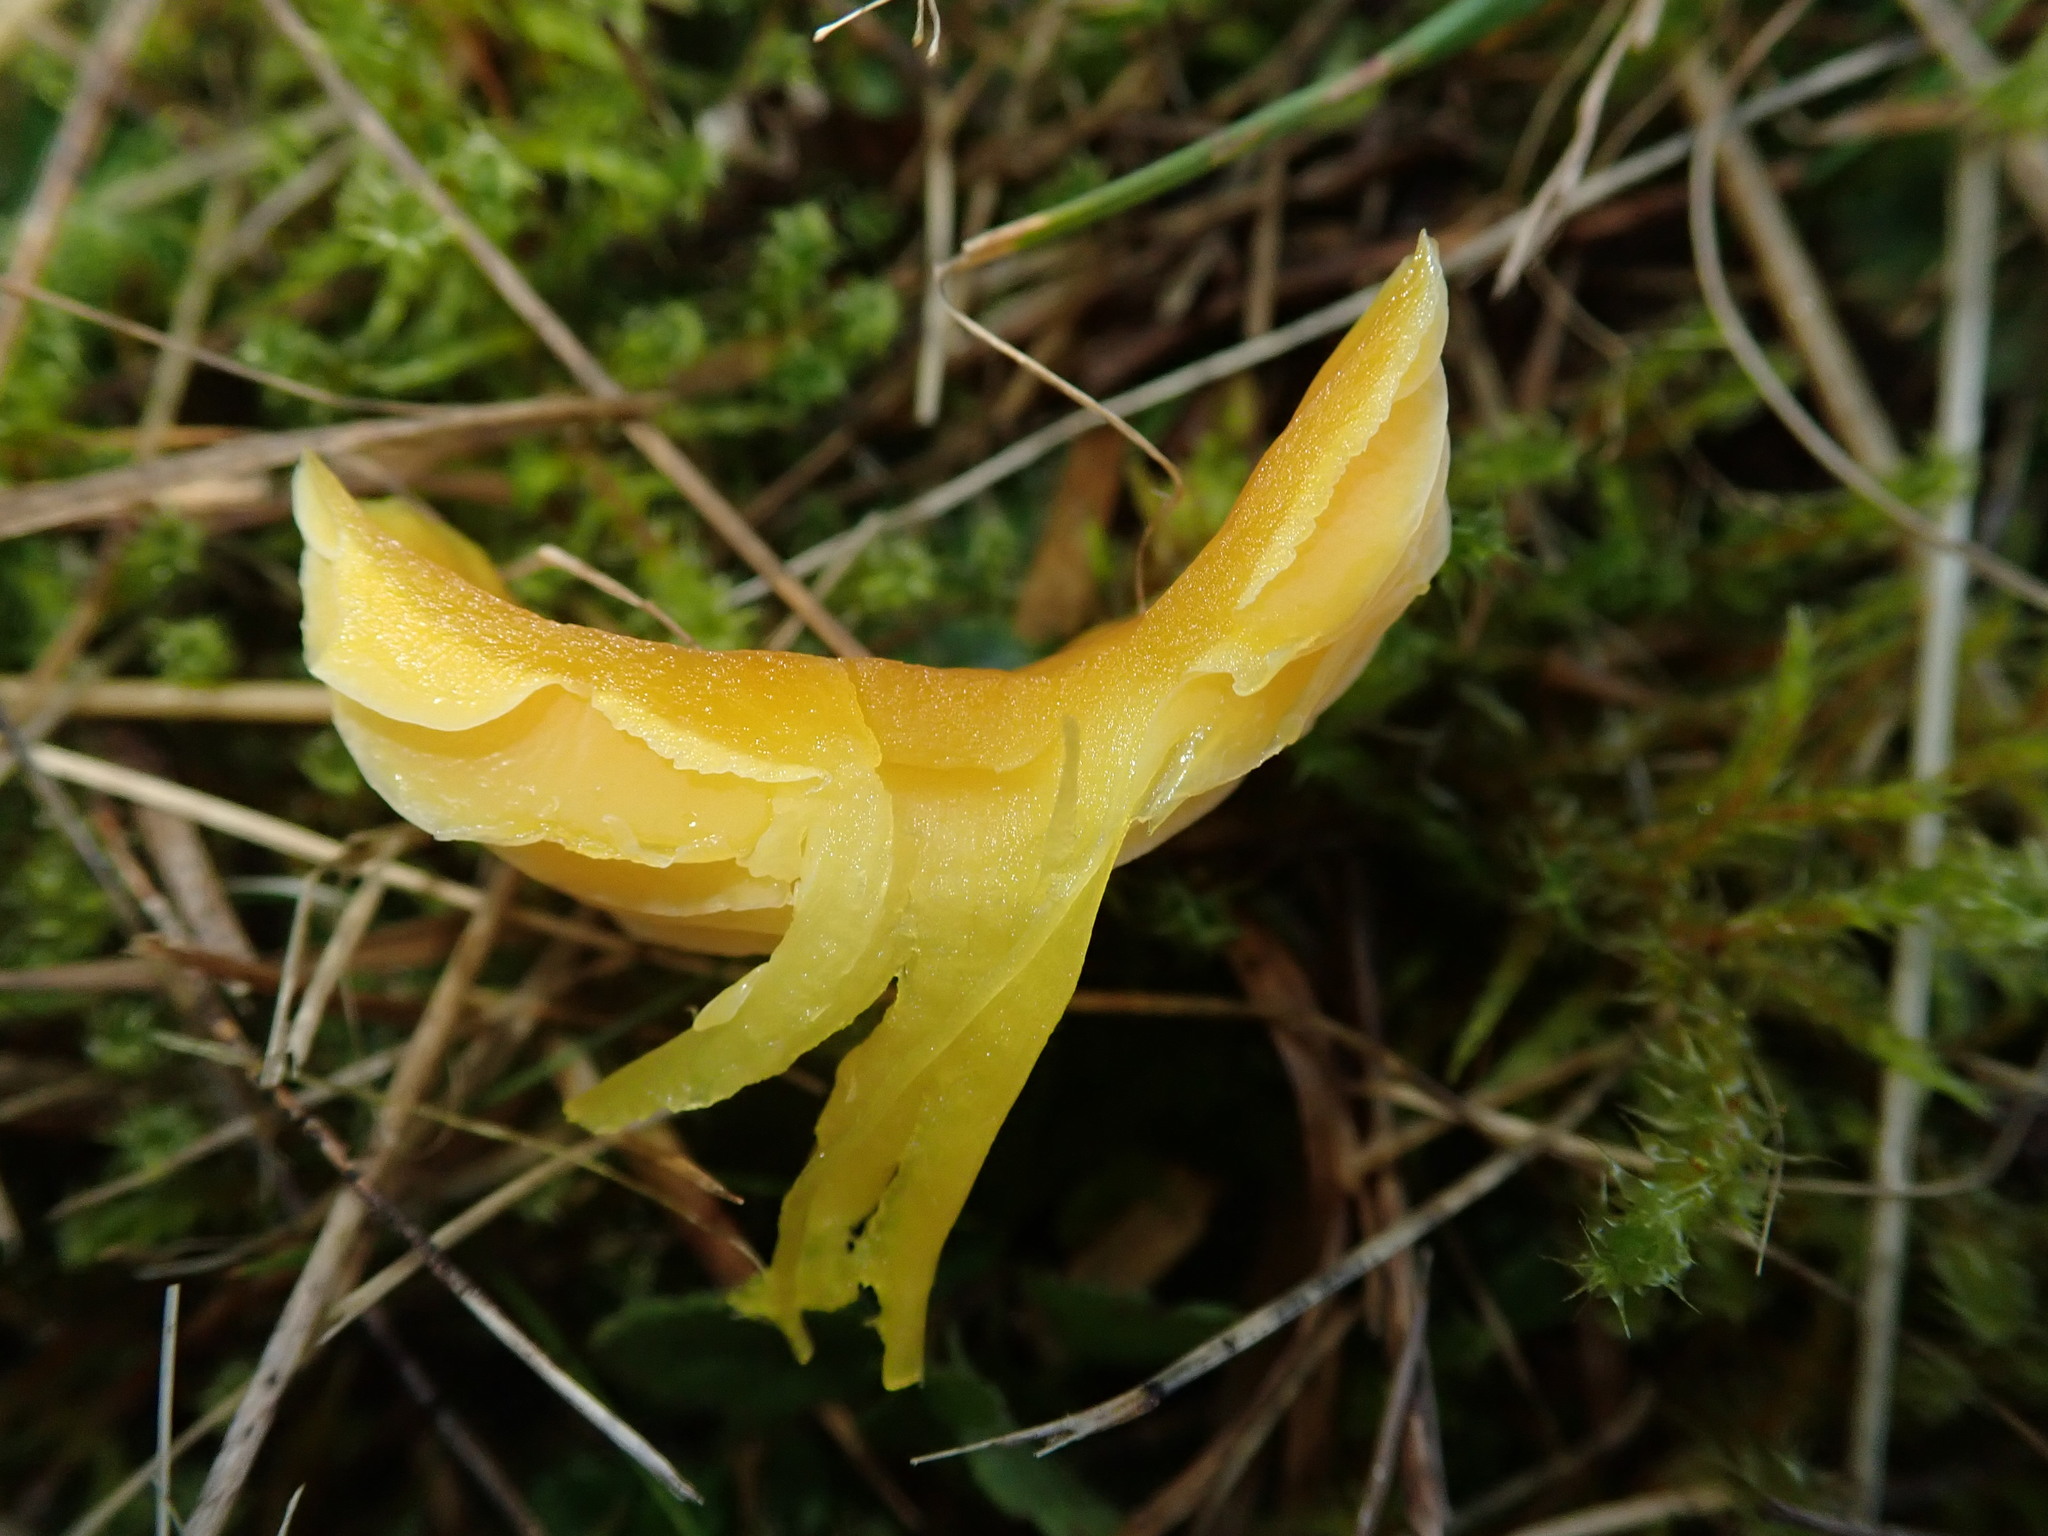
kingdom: Fungi
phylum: Basidiomycota
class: Agaricomycetes
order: Agaricales
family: Hygrophoraceae
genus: Hygrocybe
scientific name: Hygrocybe ceracea
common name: Butter waxcap
